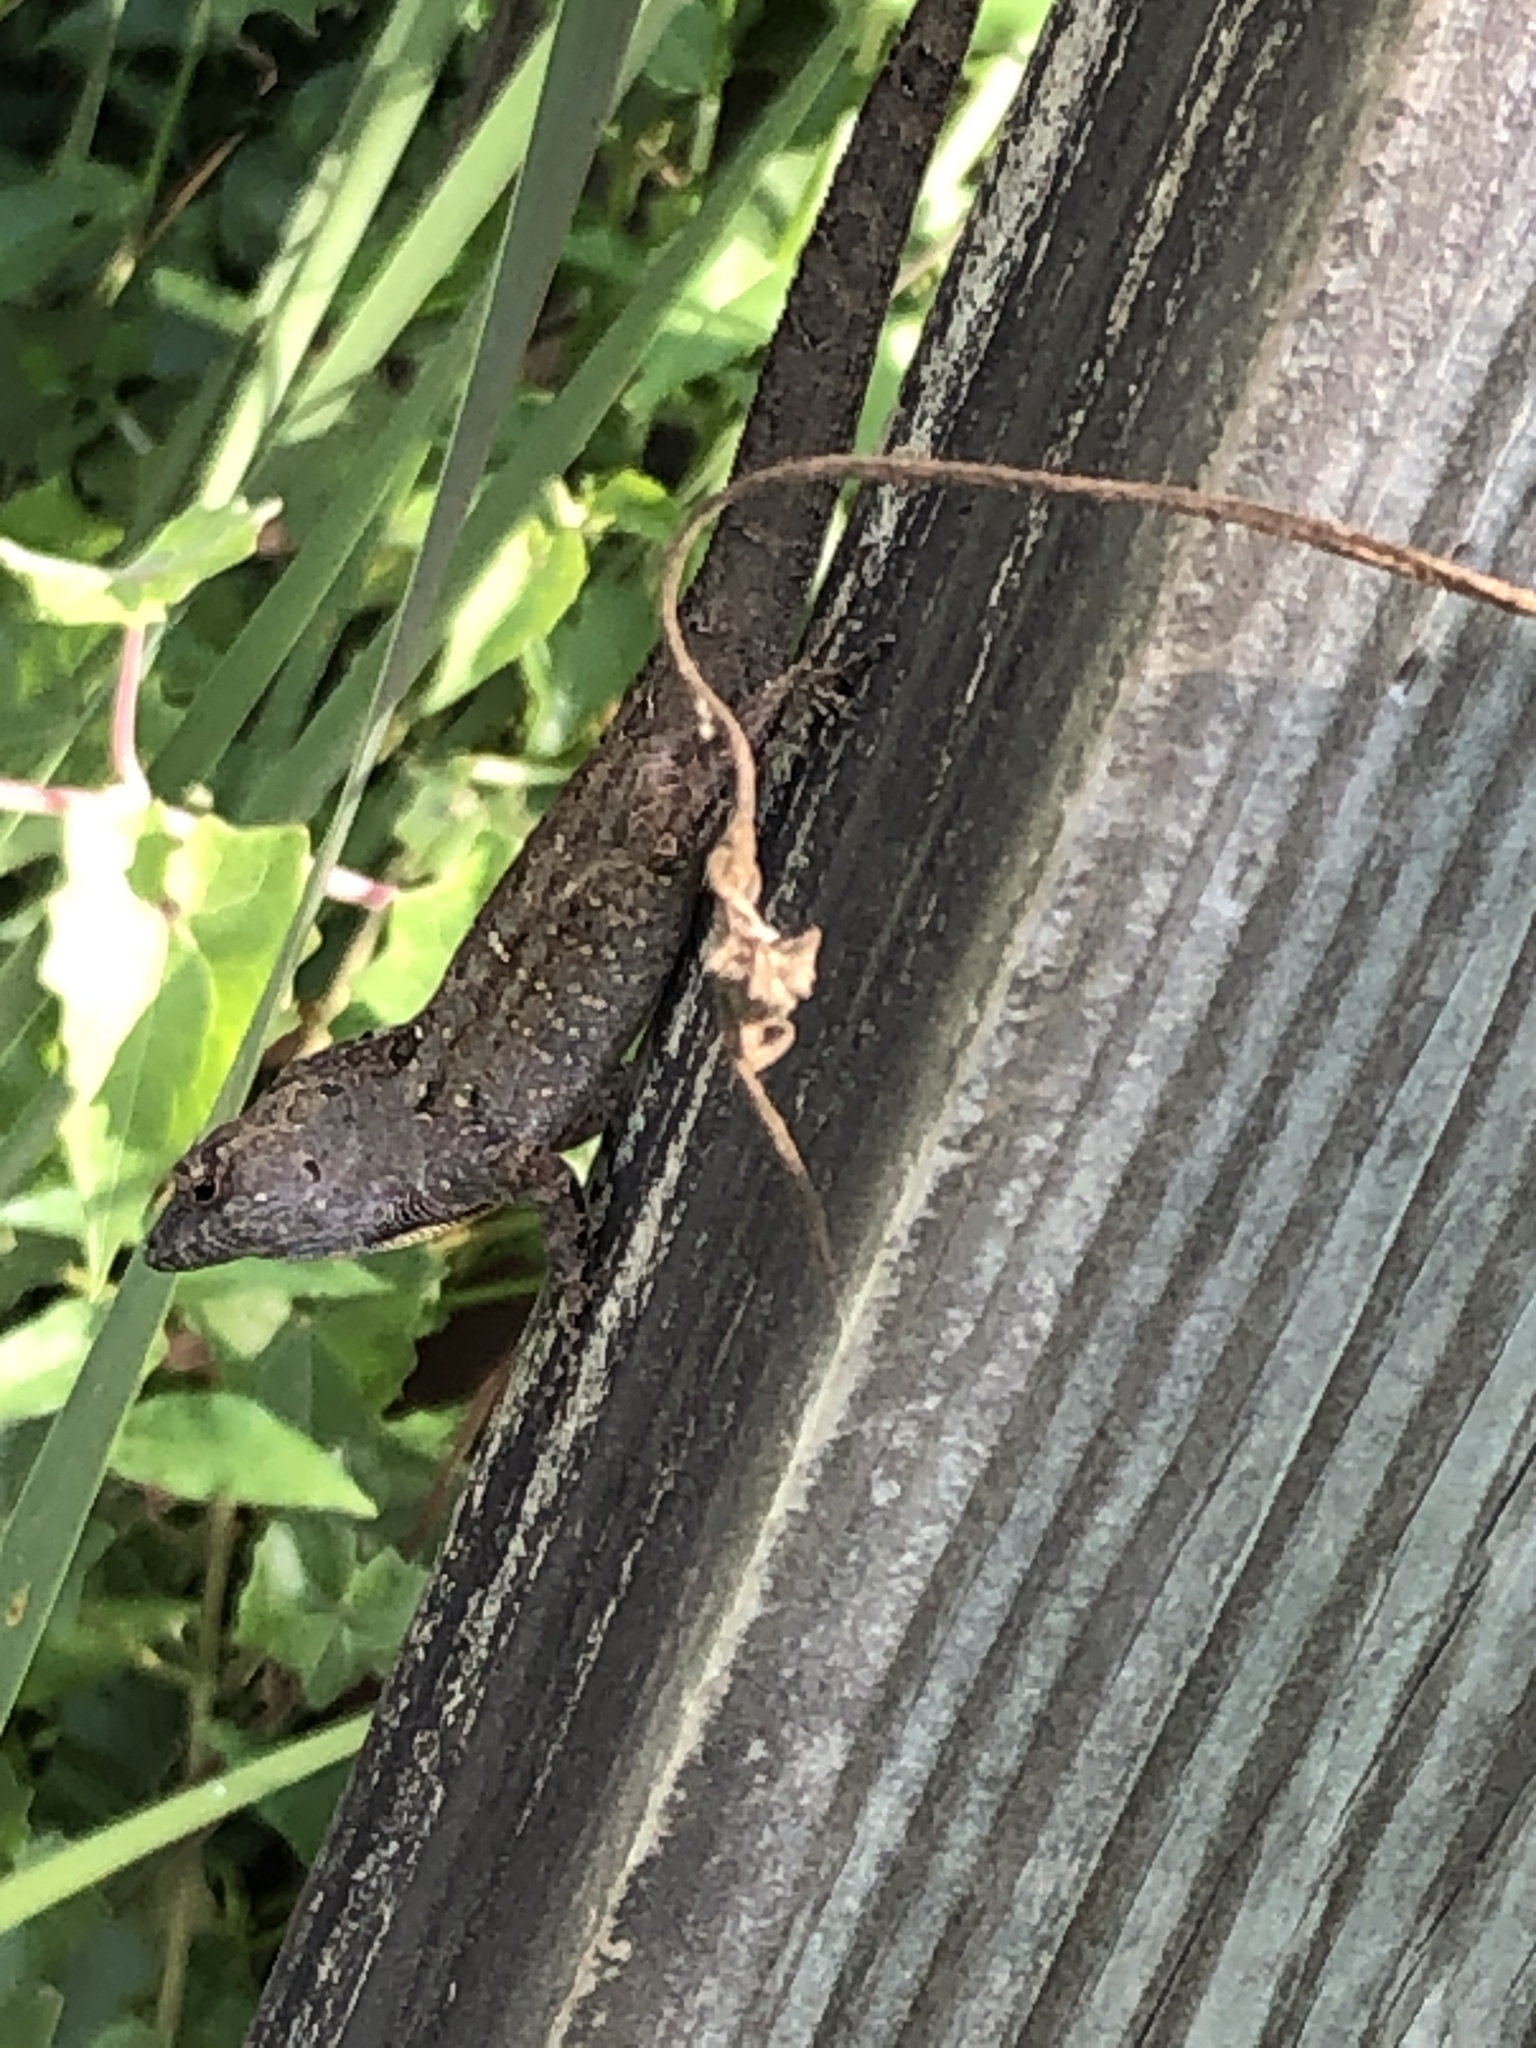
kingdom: Animalia
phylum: Chordata
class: Squamata
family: Dactyloidae
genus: Anolis
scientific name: Anolis sagrei
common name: Brown anole
